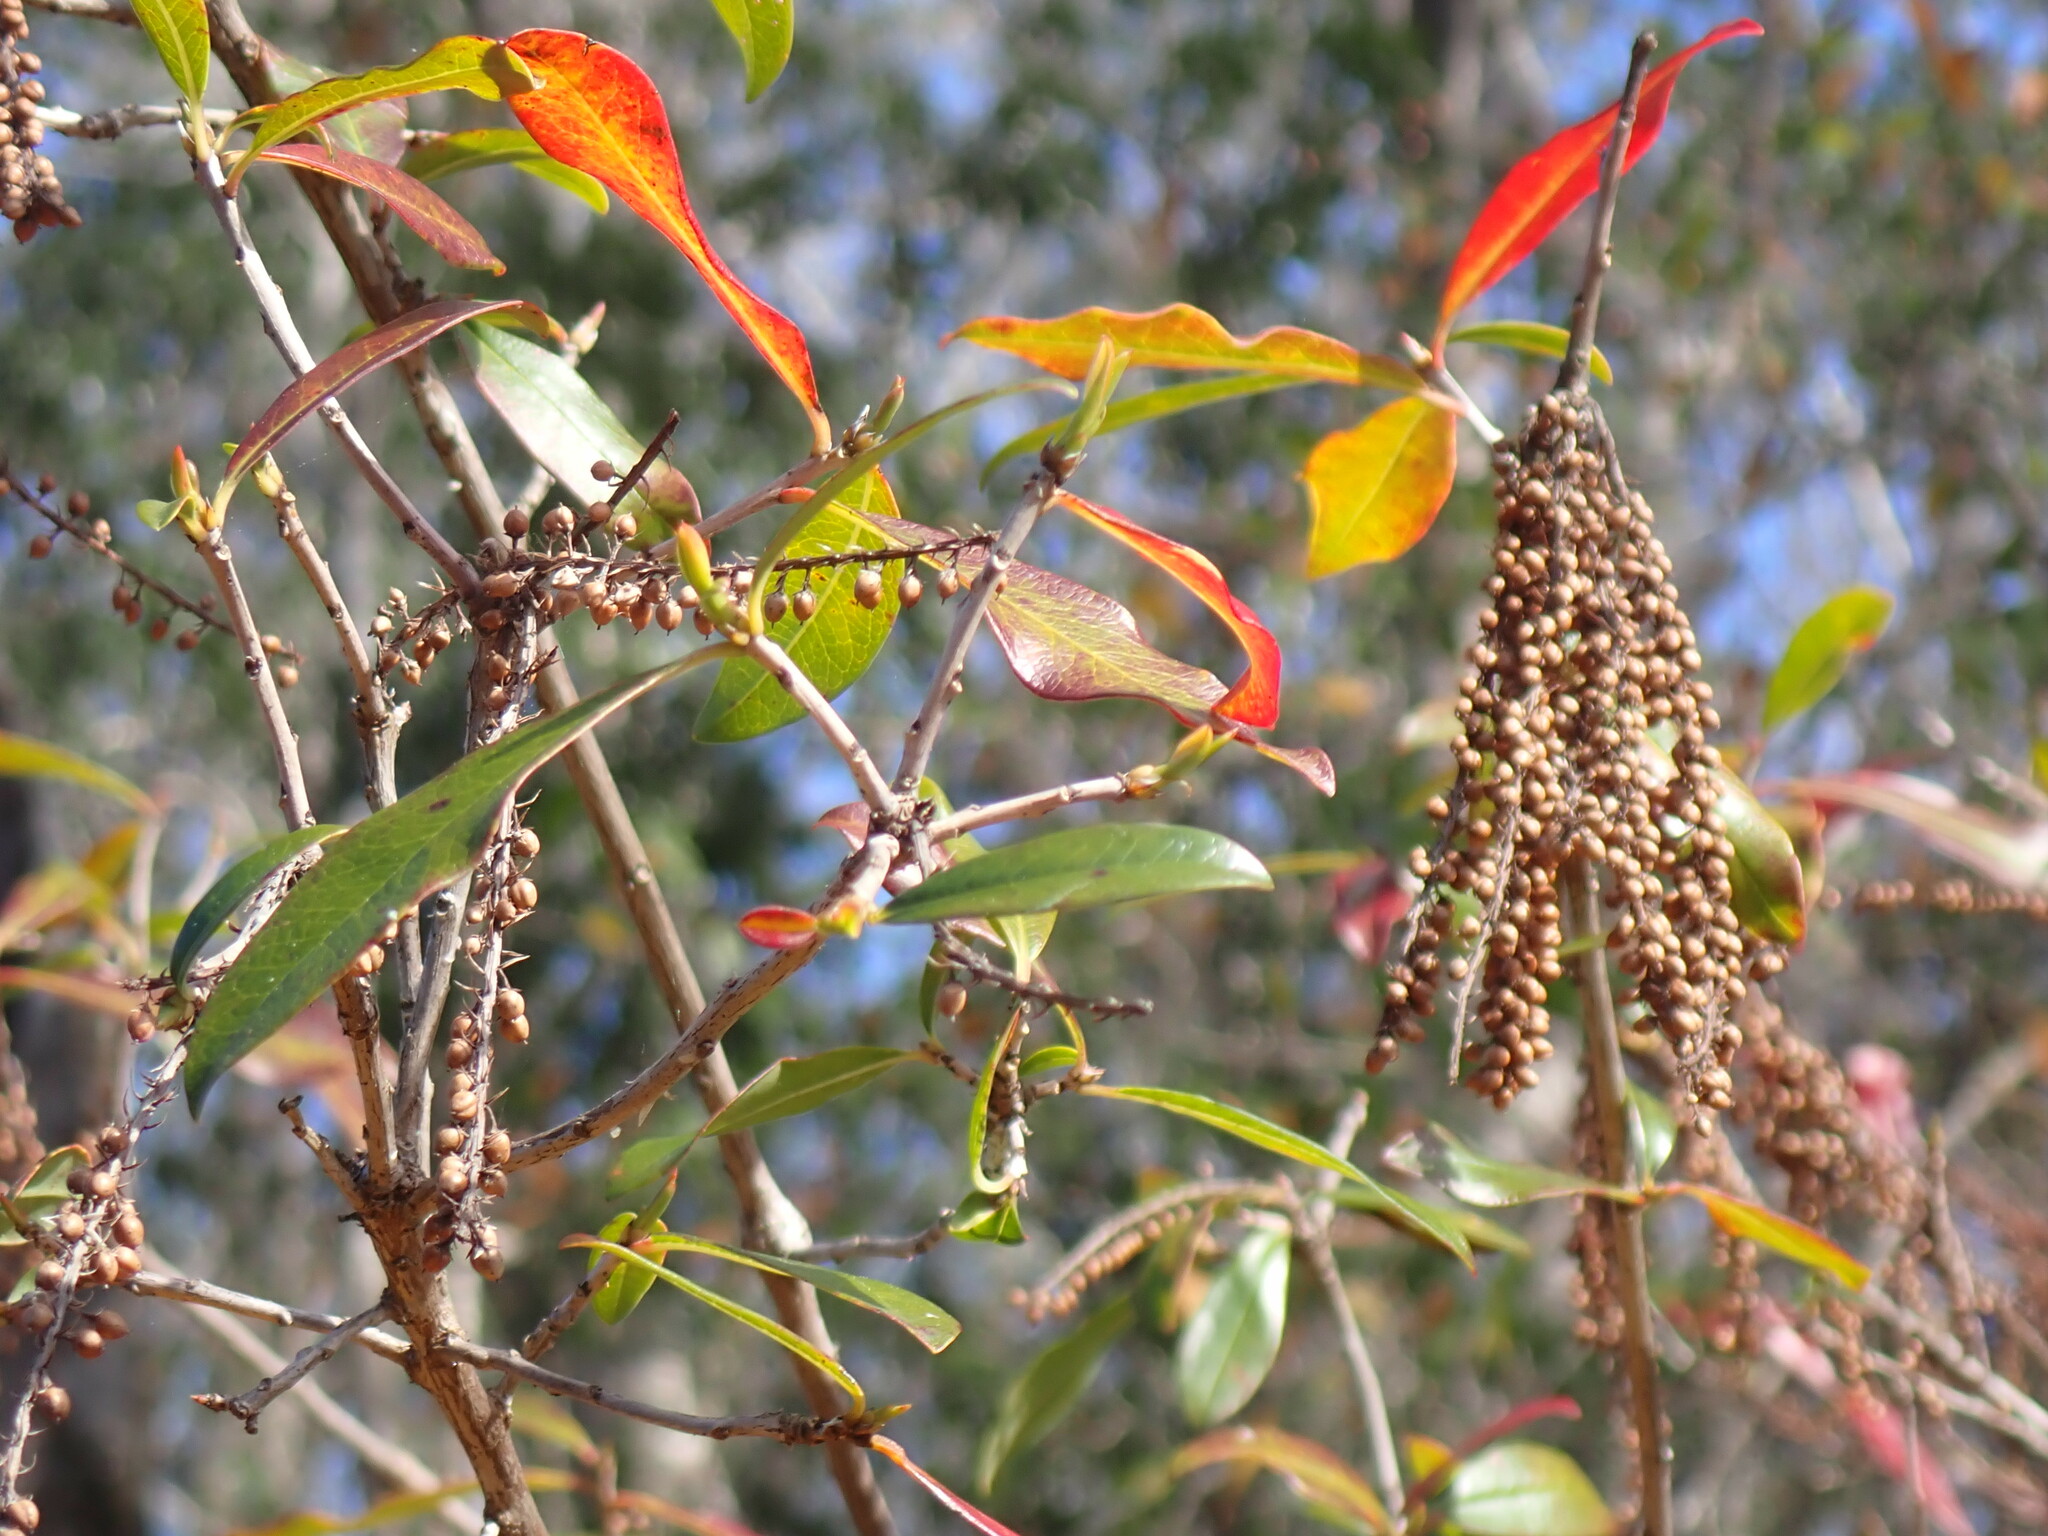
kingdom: Plantae
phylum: Tracheophyta
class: Magnoliopsida
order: Ericales
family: Cyrillaceae
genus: Cyrilla
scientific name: Cyrilla racemiflora
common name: Black titi
